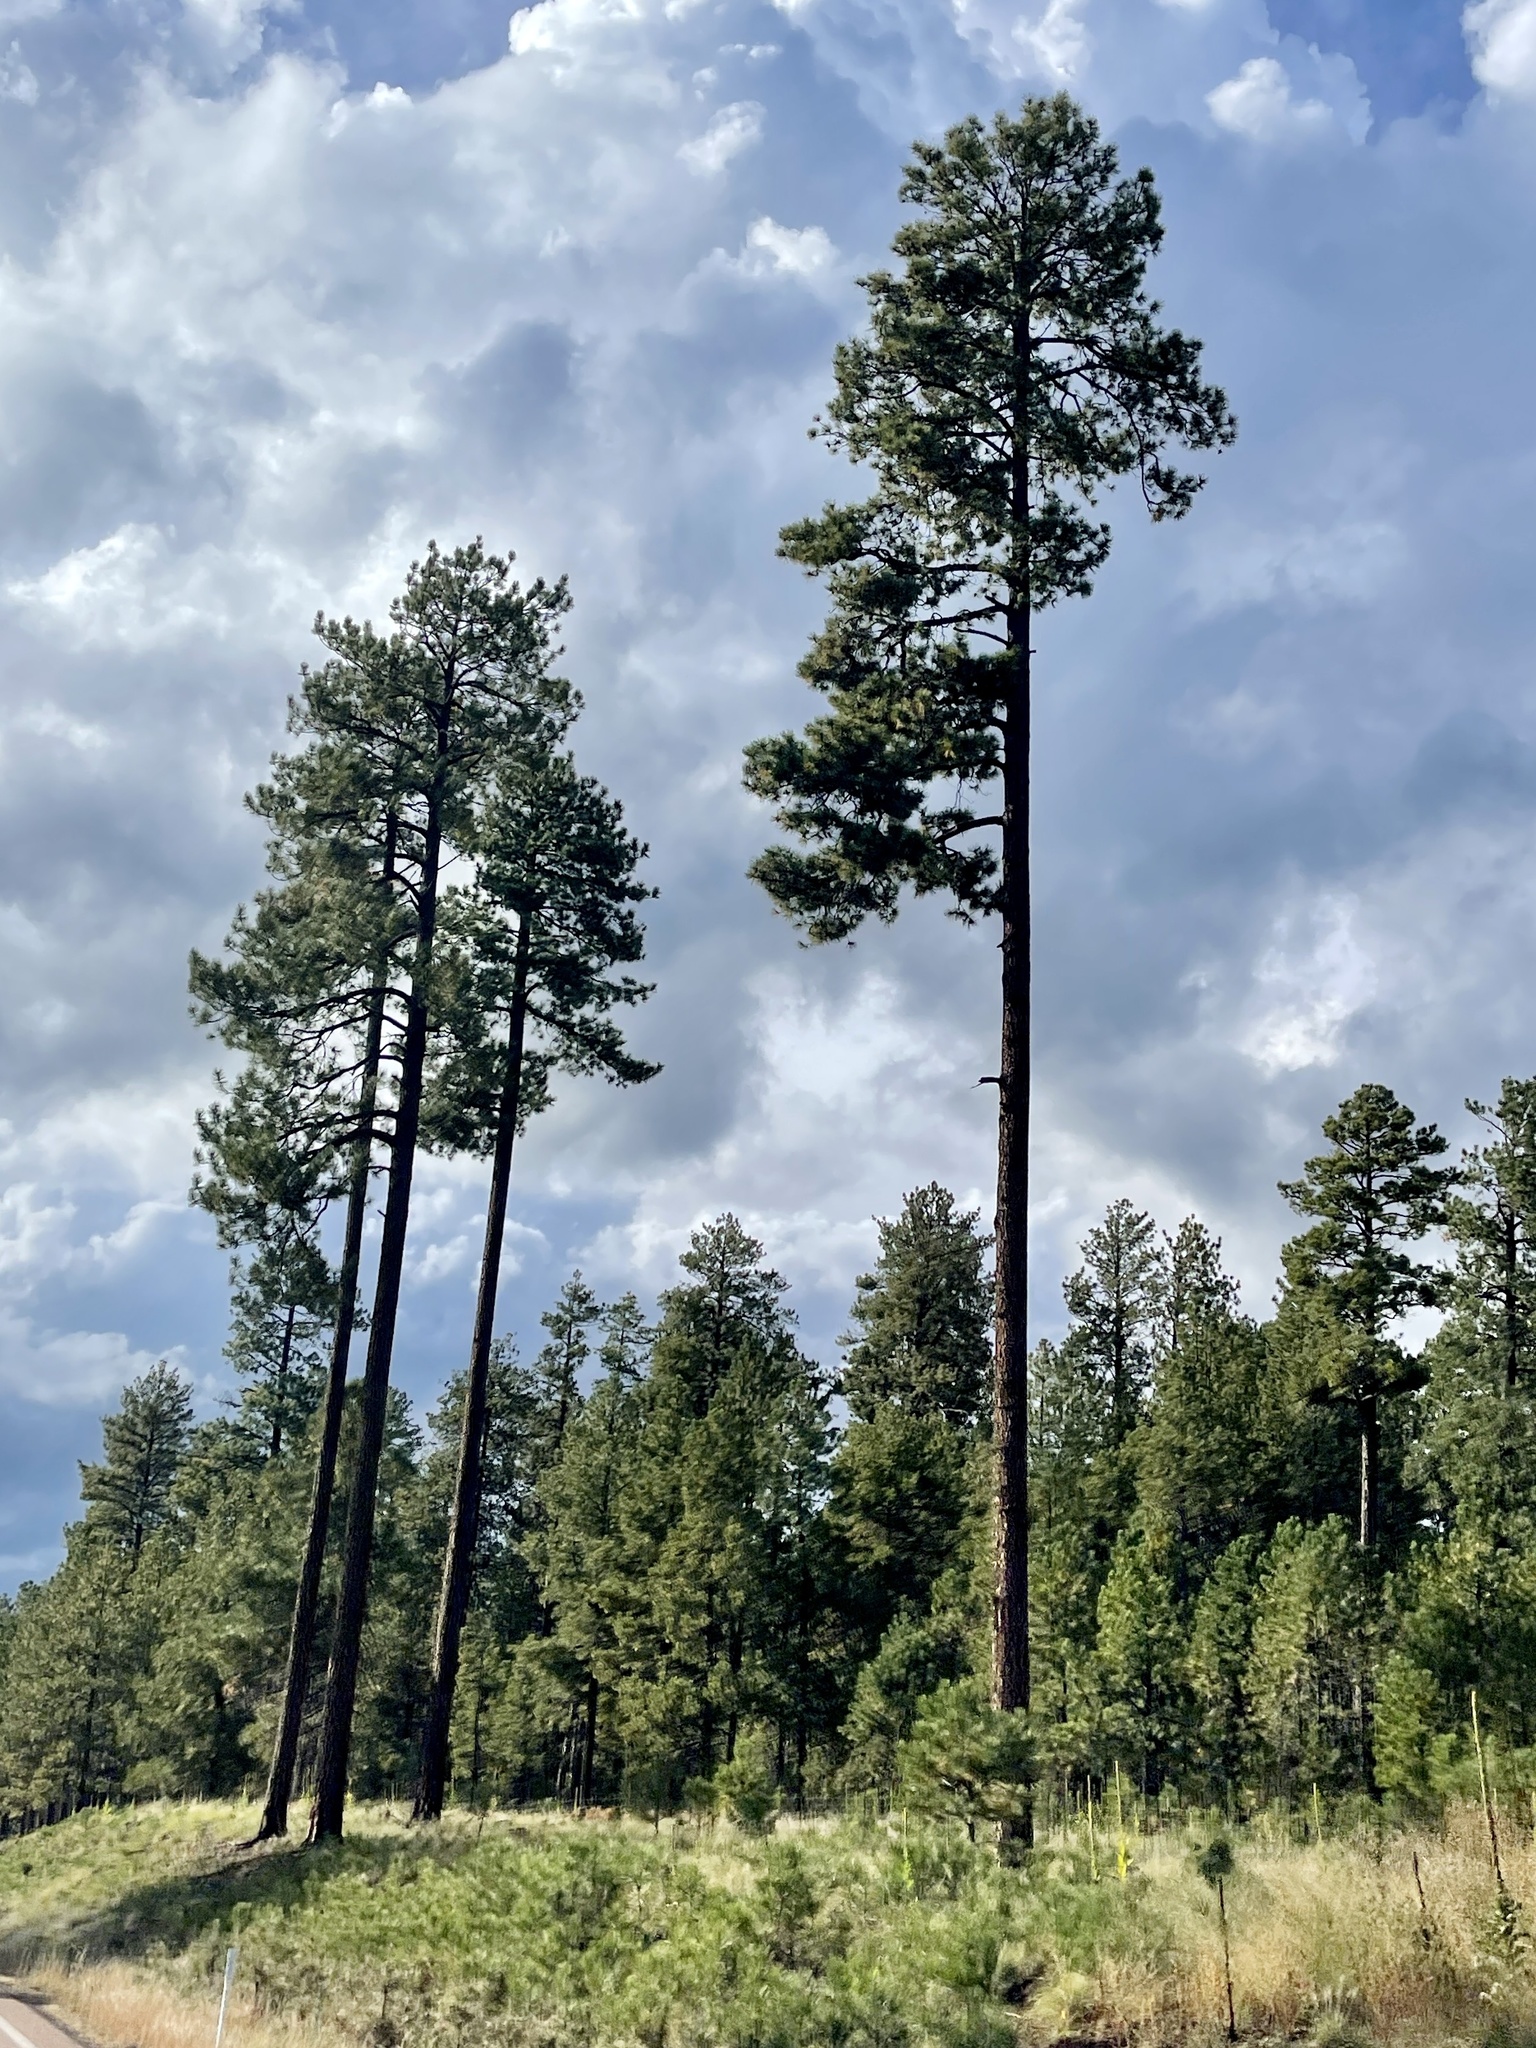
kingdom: Plantae
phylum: Tracheophyta
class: Pinopsida
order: Pinales
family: Pinaceae
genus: Pinus
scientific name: Pinus ponderosa
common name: Western yellow-pine
